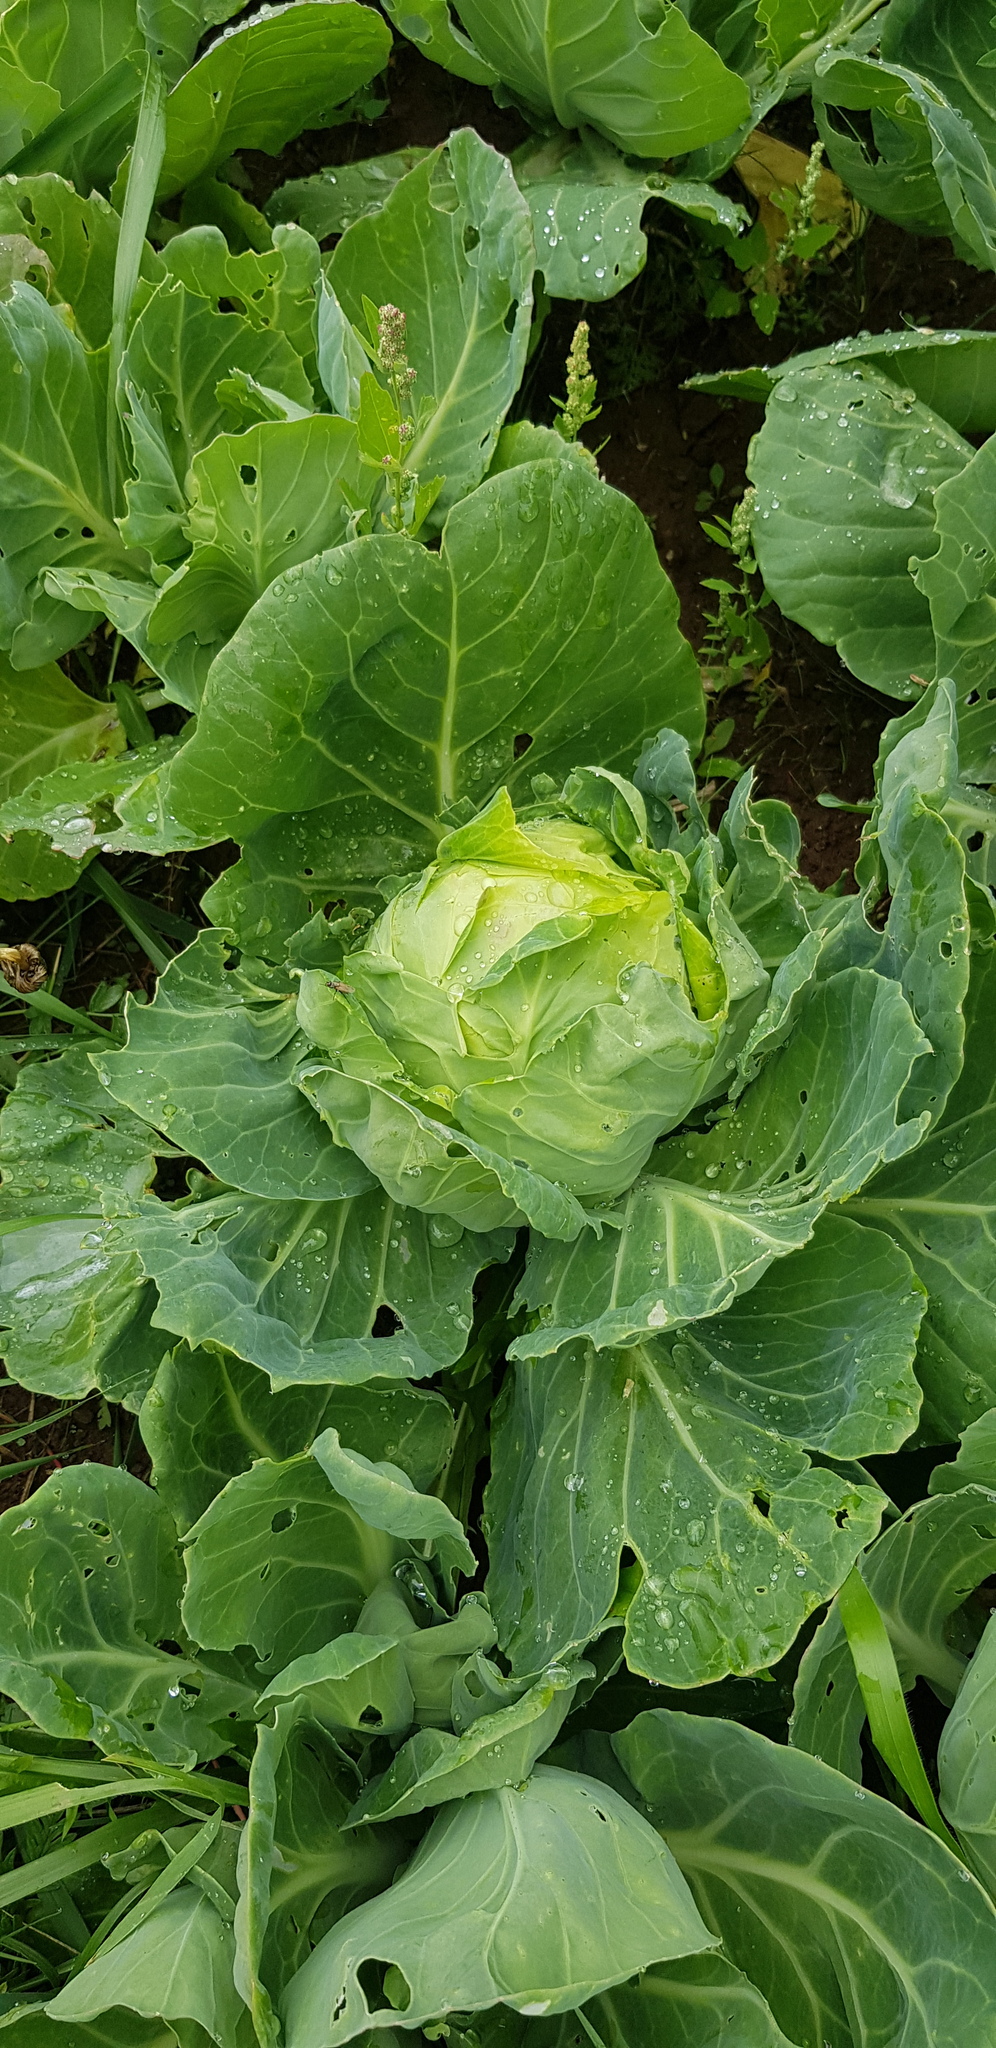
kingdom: Plantae
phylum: Tracheophyta
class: Magnoliopsida
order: Brassicales
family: Brassicaceae
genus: Brassica
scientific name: Brassica oleracea
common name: Cabbage
